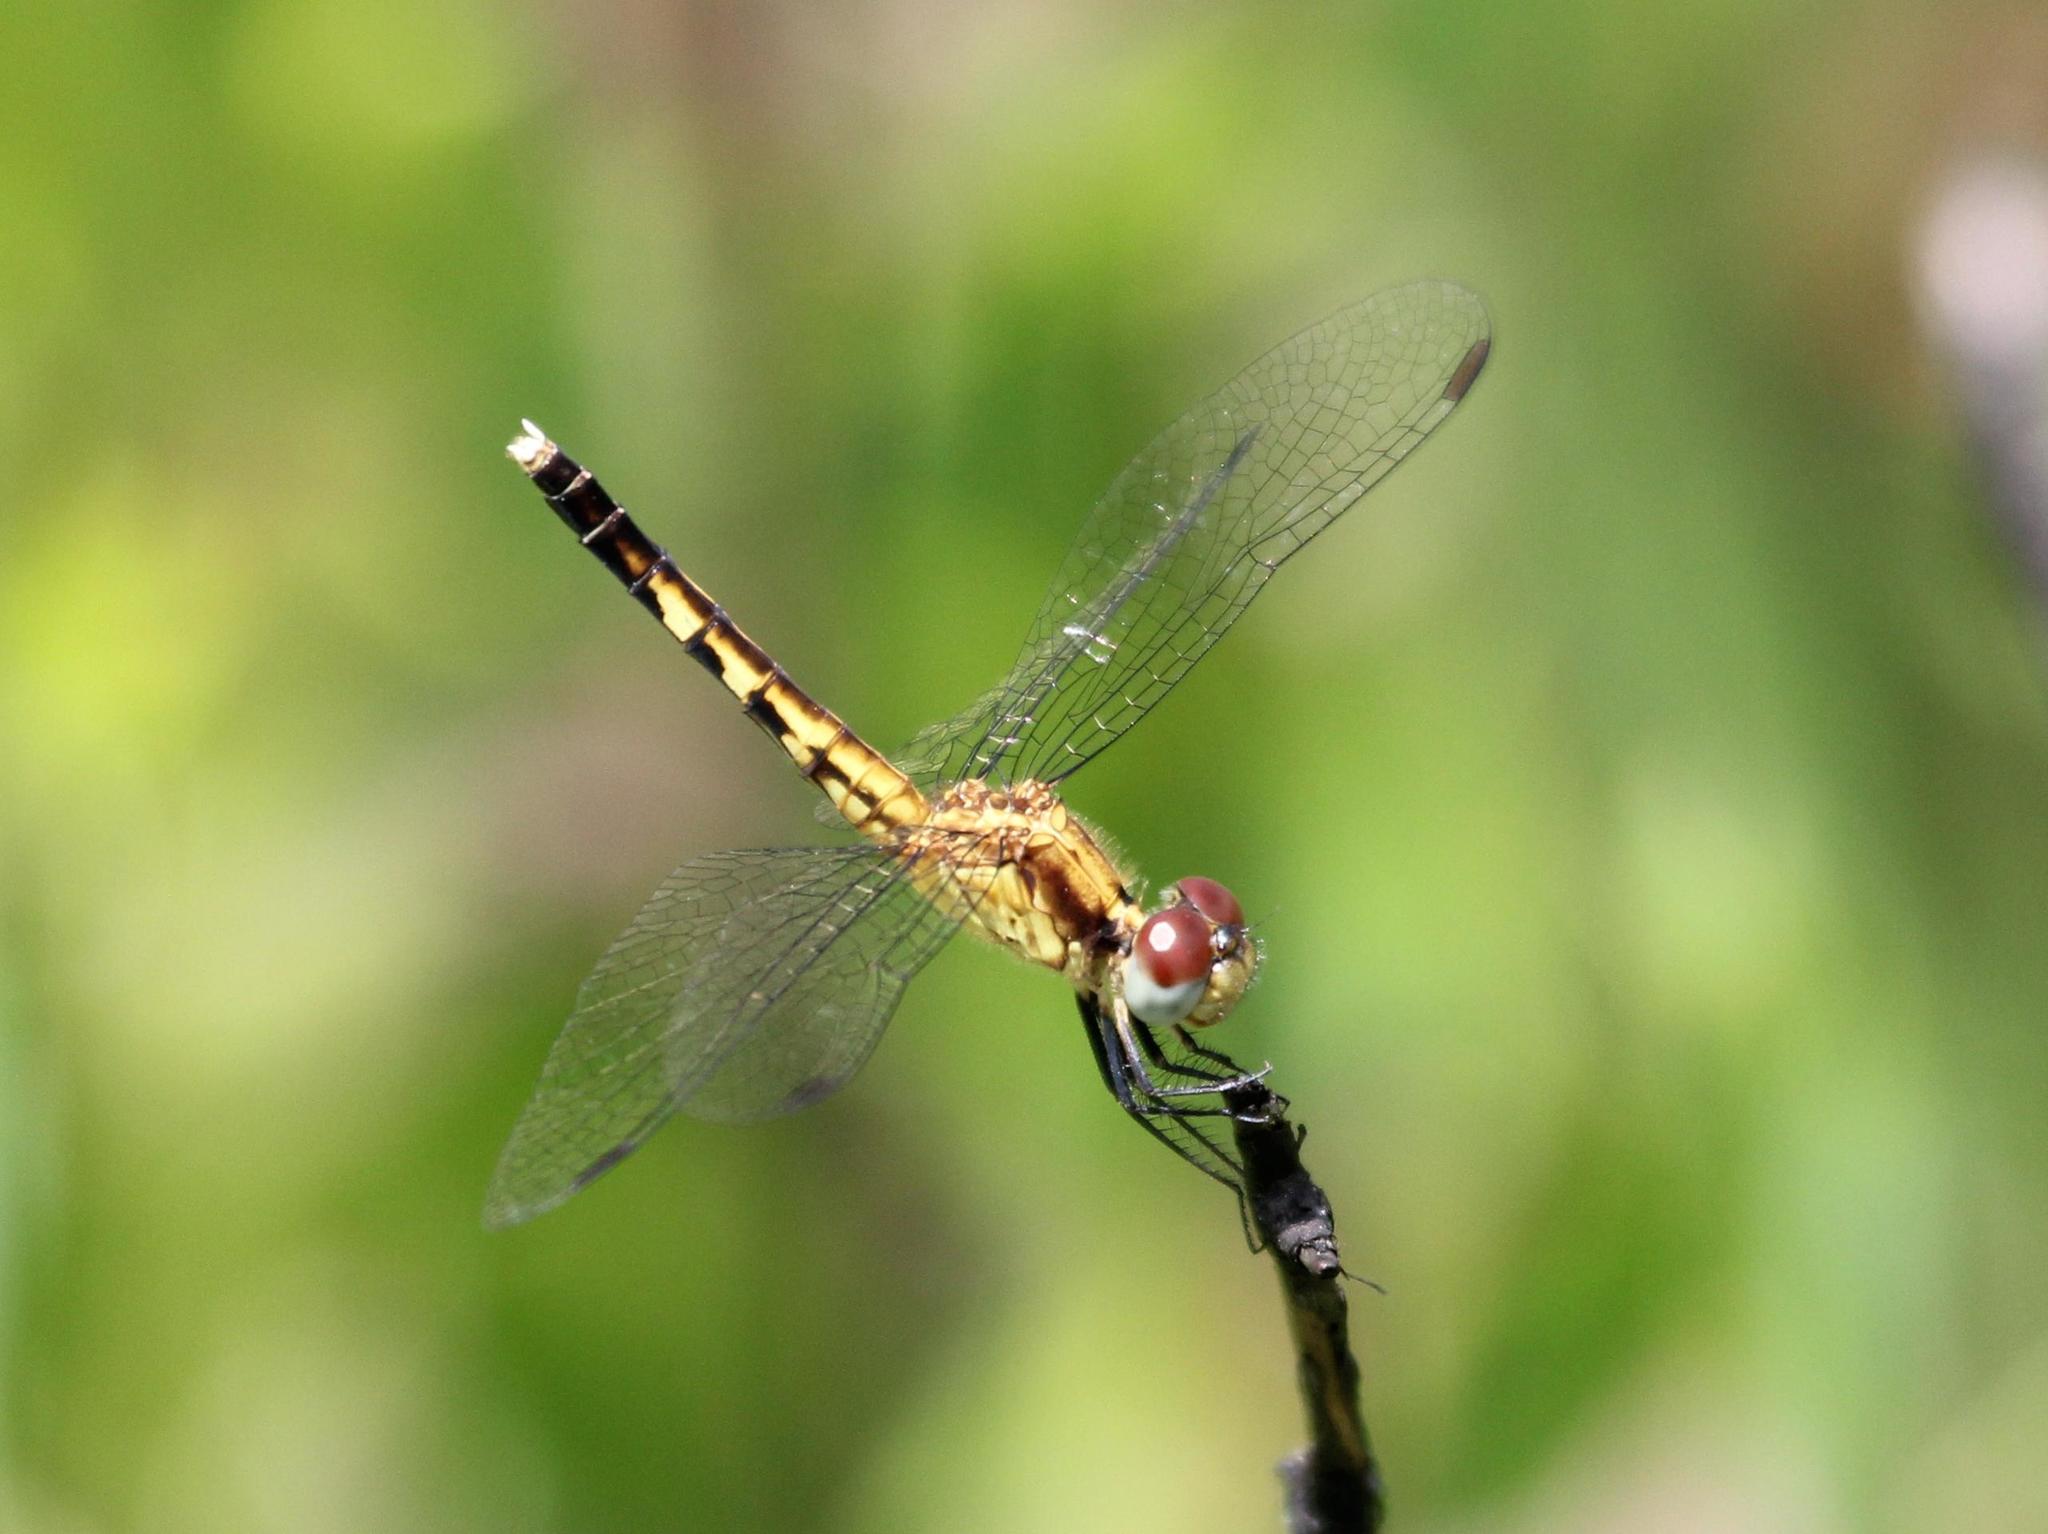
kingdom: Animalia
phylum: Arthropoda
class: Insecta
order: Odonata
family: Libellulidae
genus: Erythrodiplax
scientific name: Erythrodiplax minuscula
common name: Little blue dragonlet
